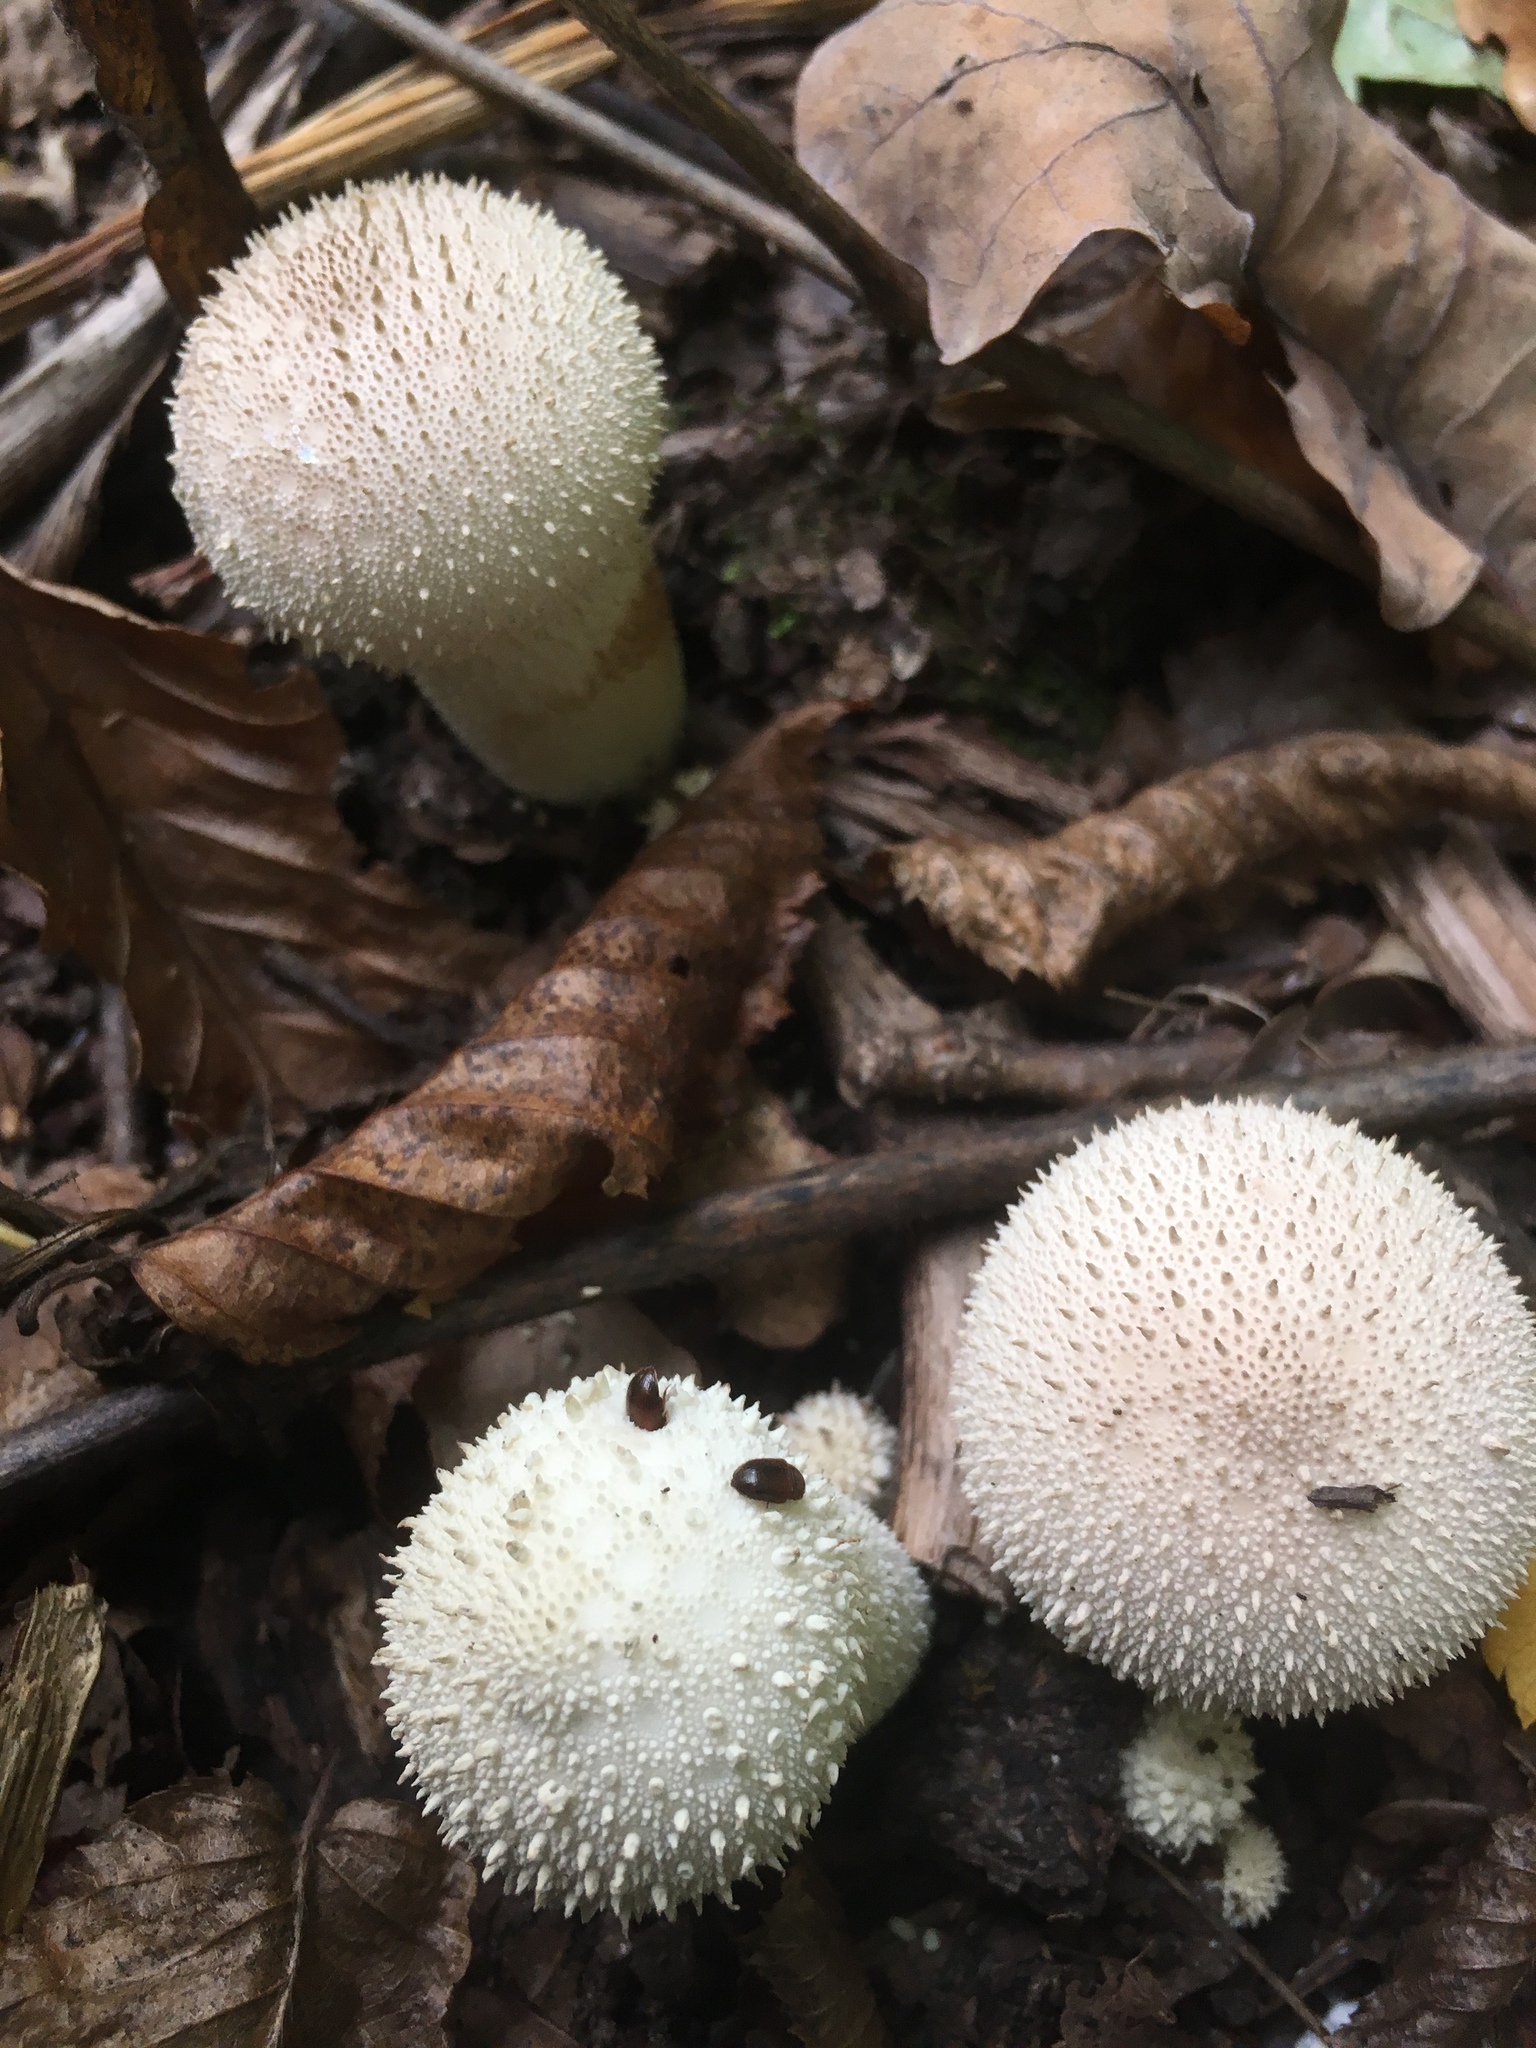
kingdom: Fungi
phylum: Basidiomycota
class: Agaricomycetes
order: Agaricales
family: Lycoperdaceae
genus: Lycoperdon
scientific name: Lycoperdon perlatum
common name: Common puffball
